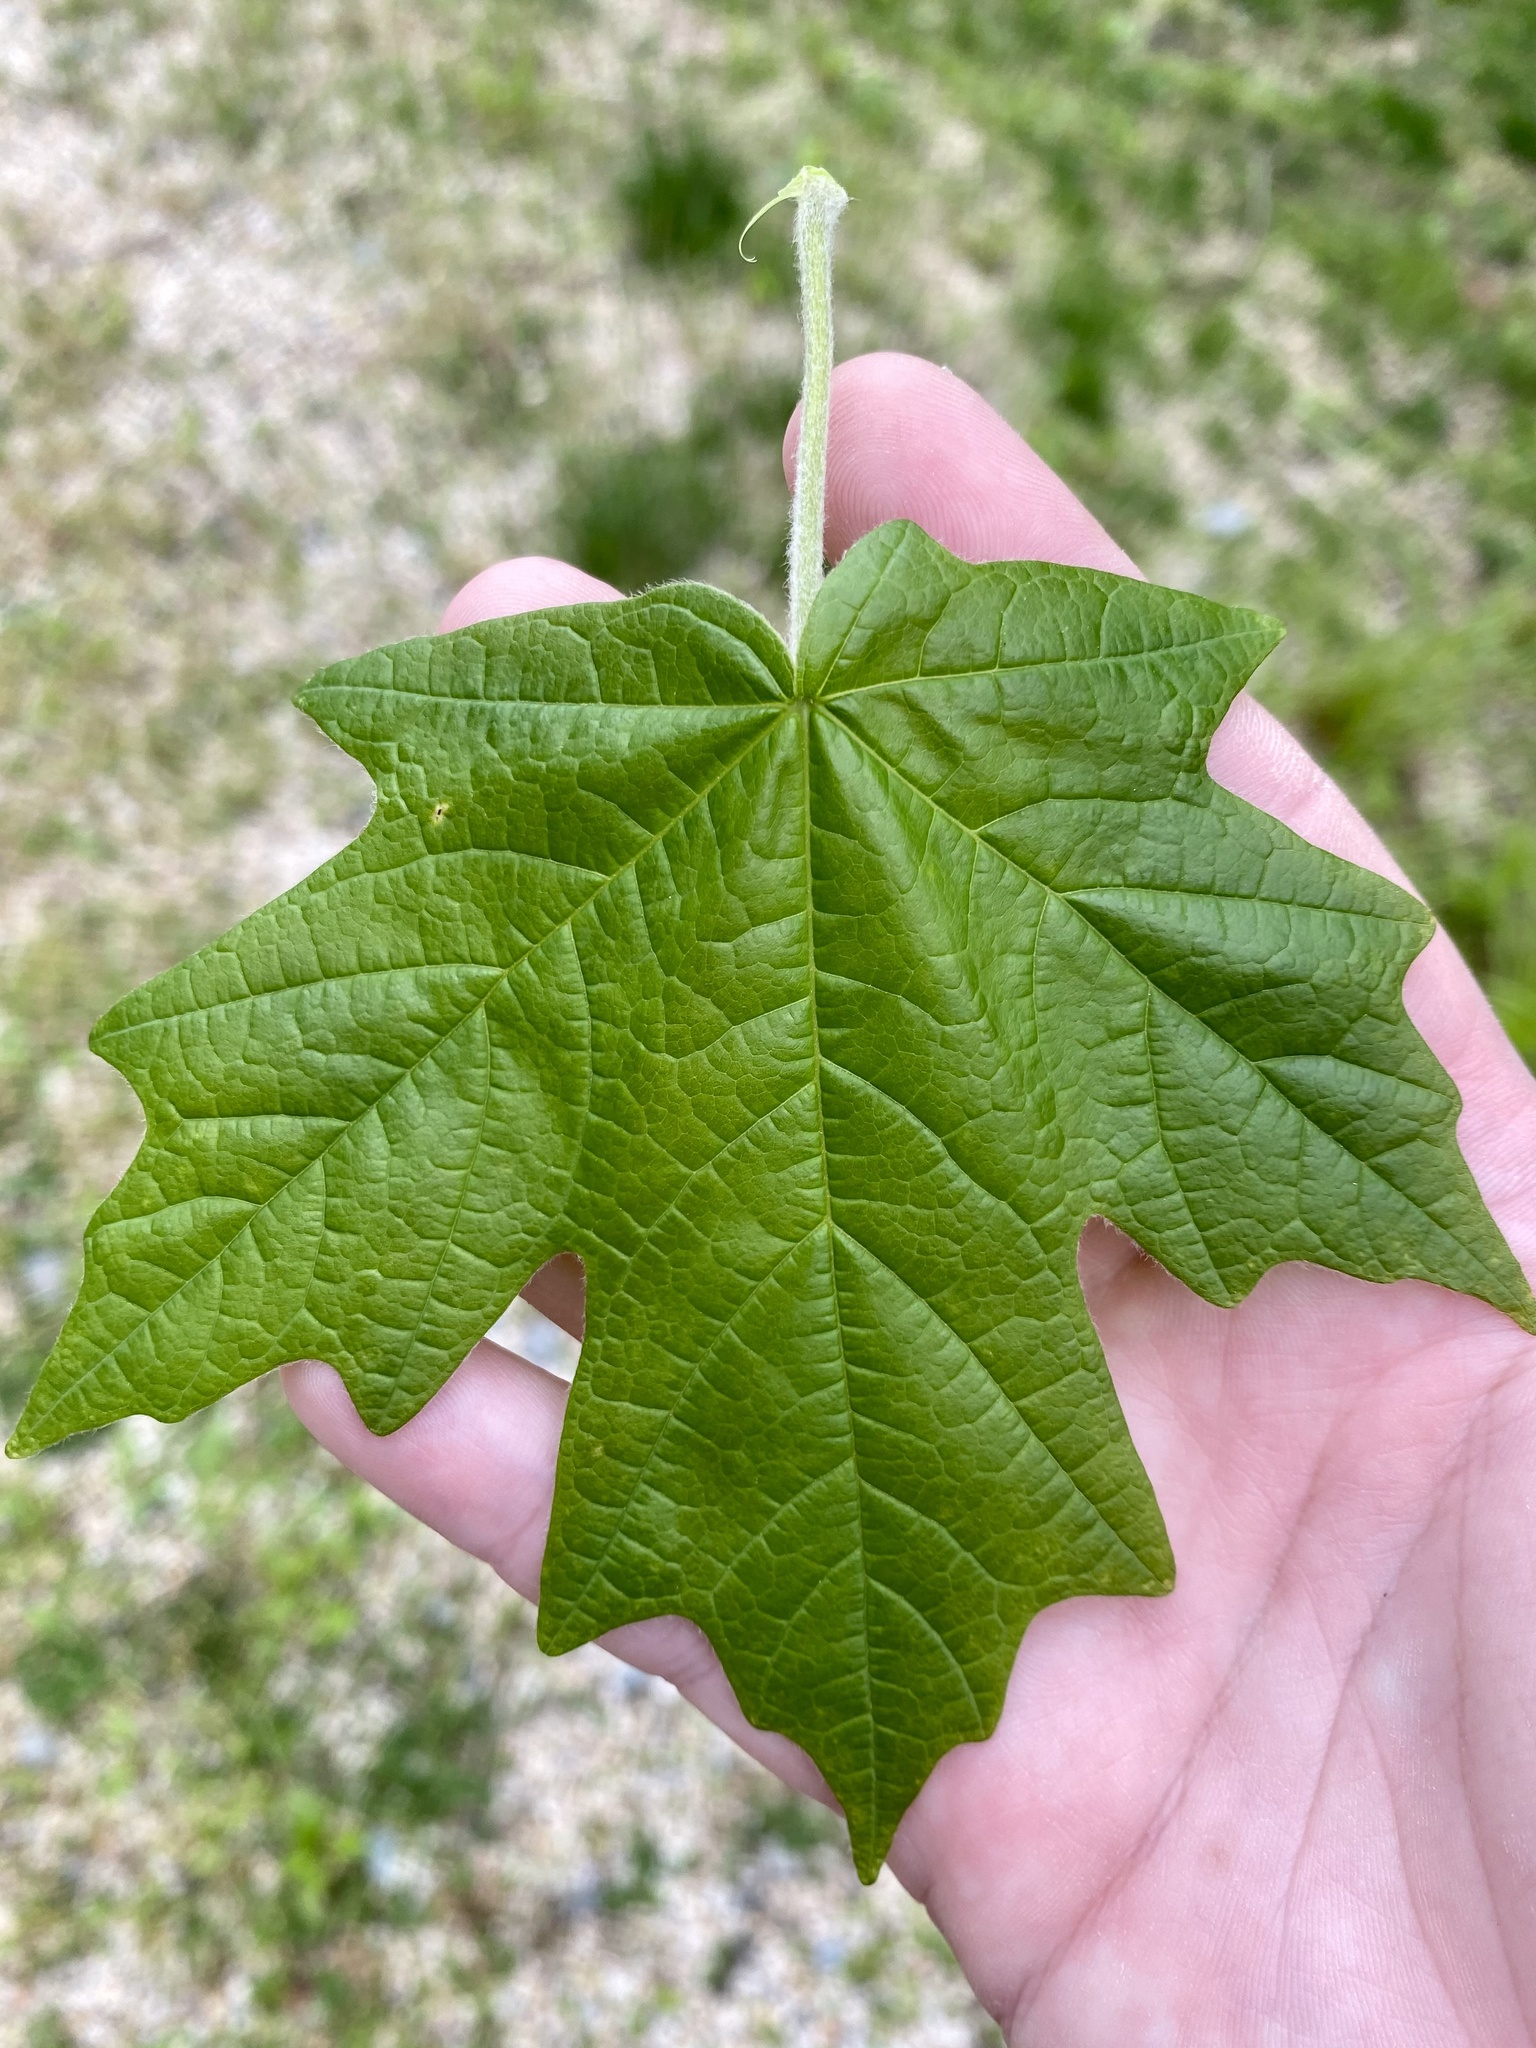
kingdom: Plantae
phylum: Tracheophyta
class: Magnoliopsida
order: Sapindales
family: Sapindaceae
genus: Acer
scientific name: Acer floridanum
